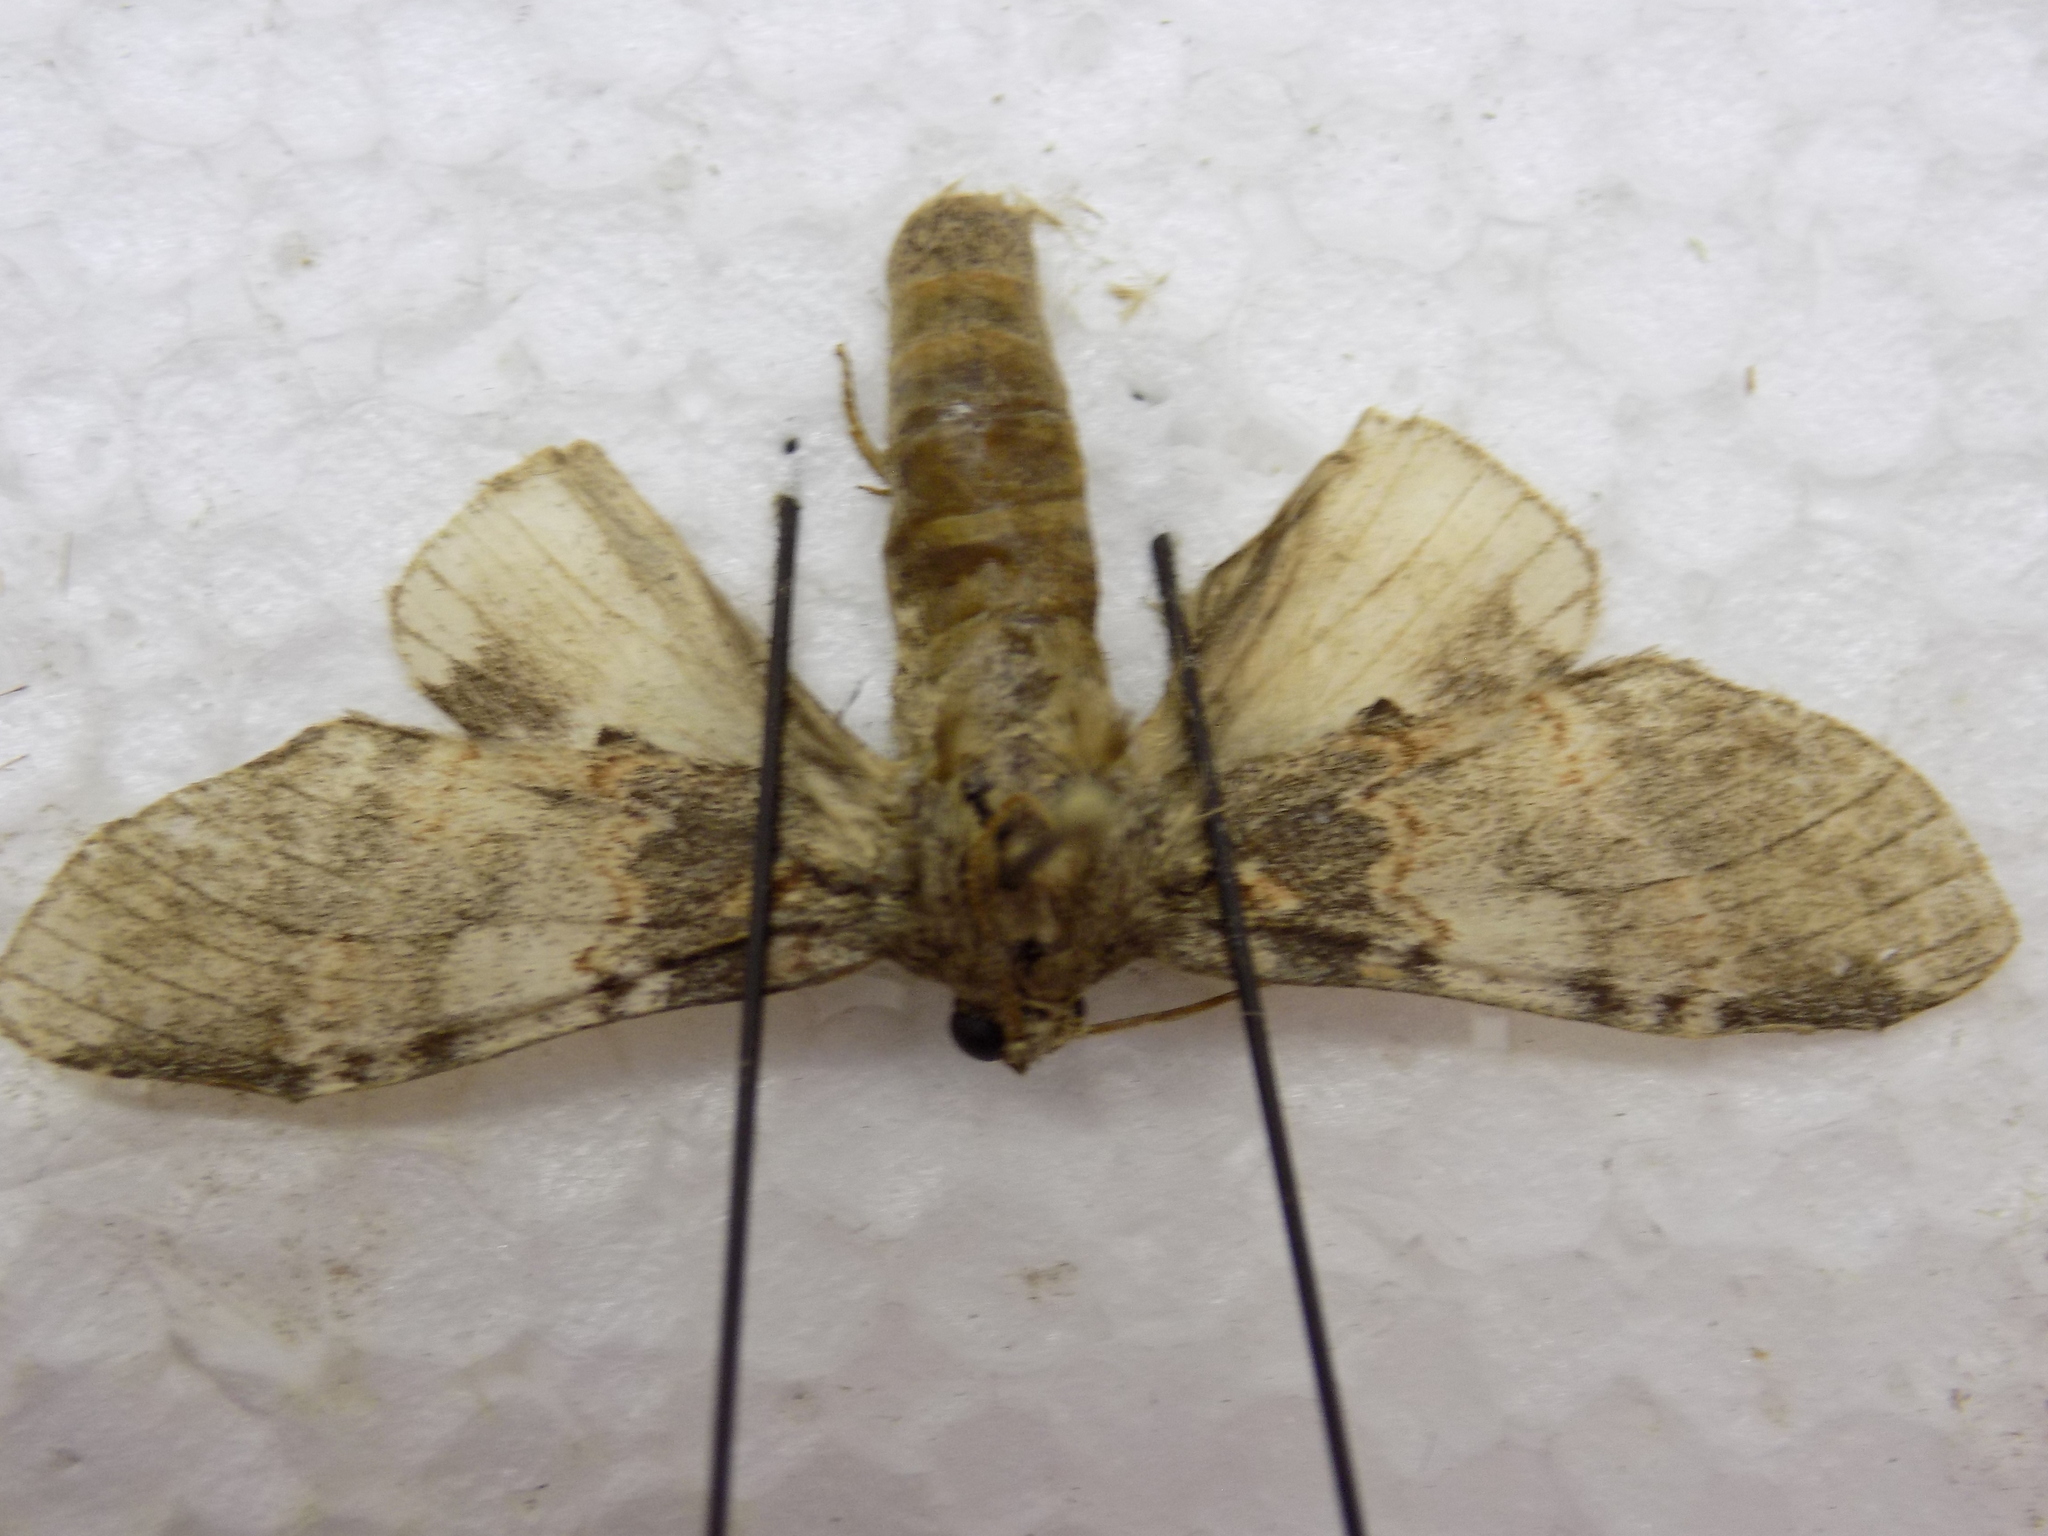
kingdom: Animalia
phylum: Arthropoda
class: Insecta
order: Lepidoptera
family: Notodontidae
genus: Peridea
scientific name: Peridea angulosa
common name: Angulose prominent
